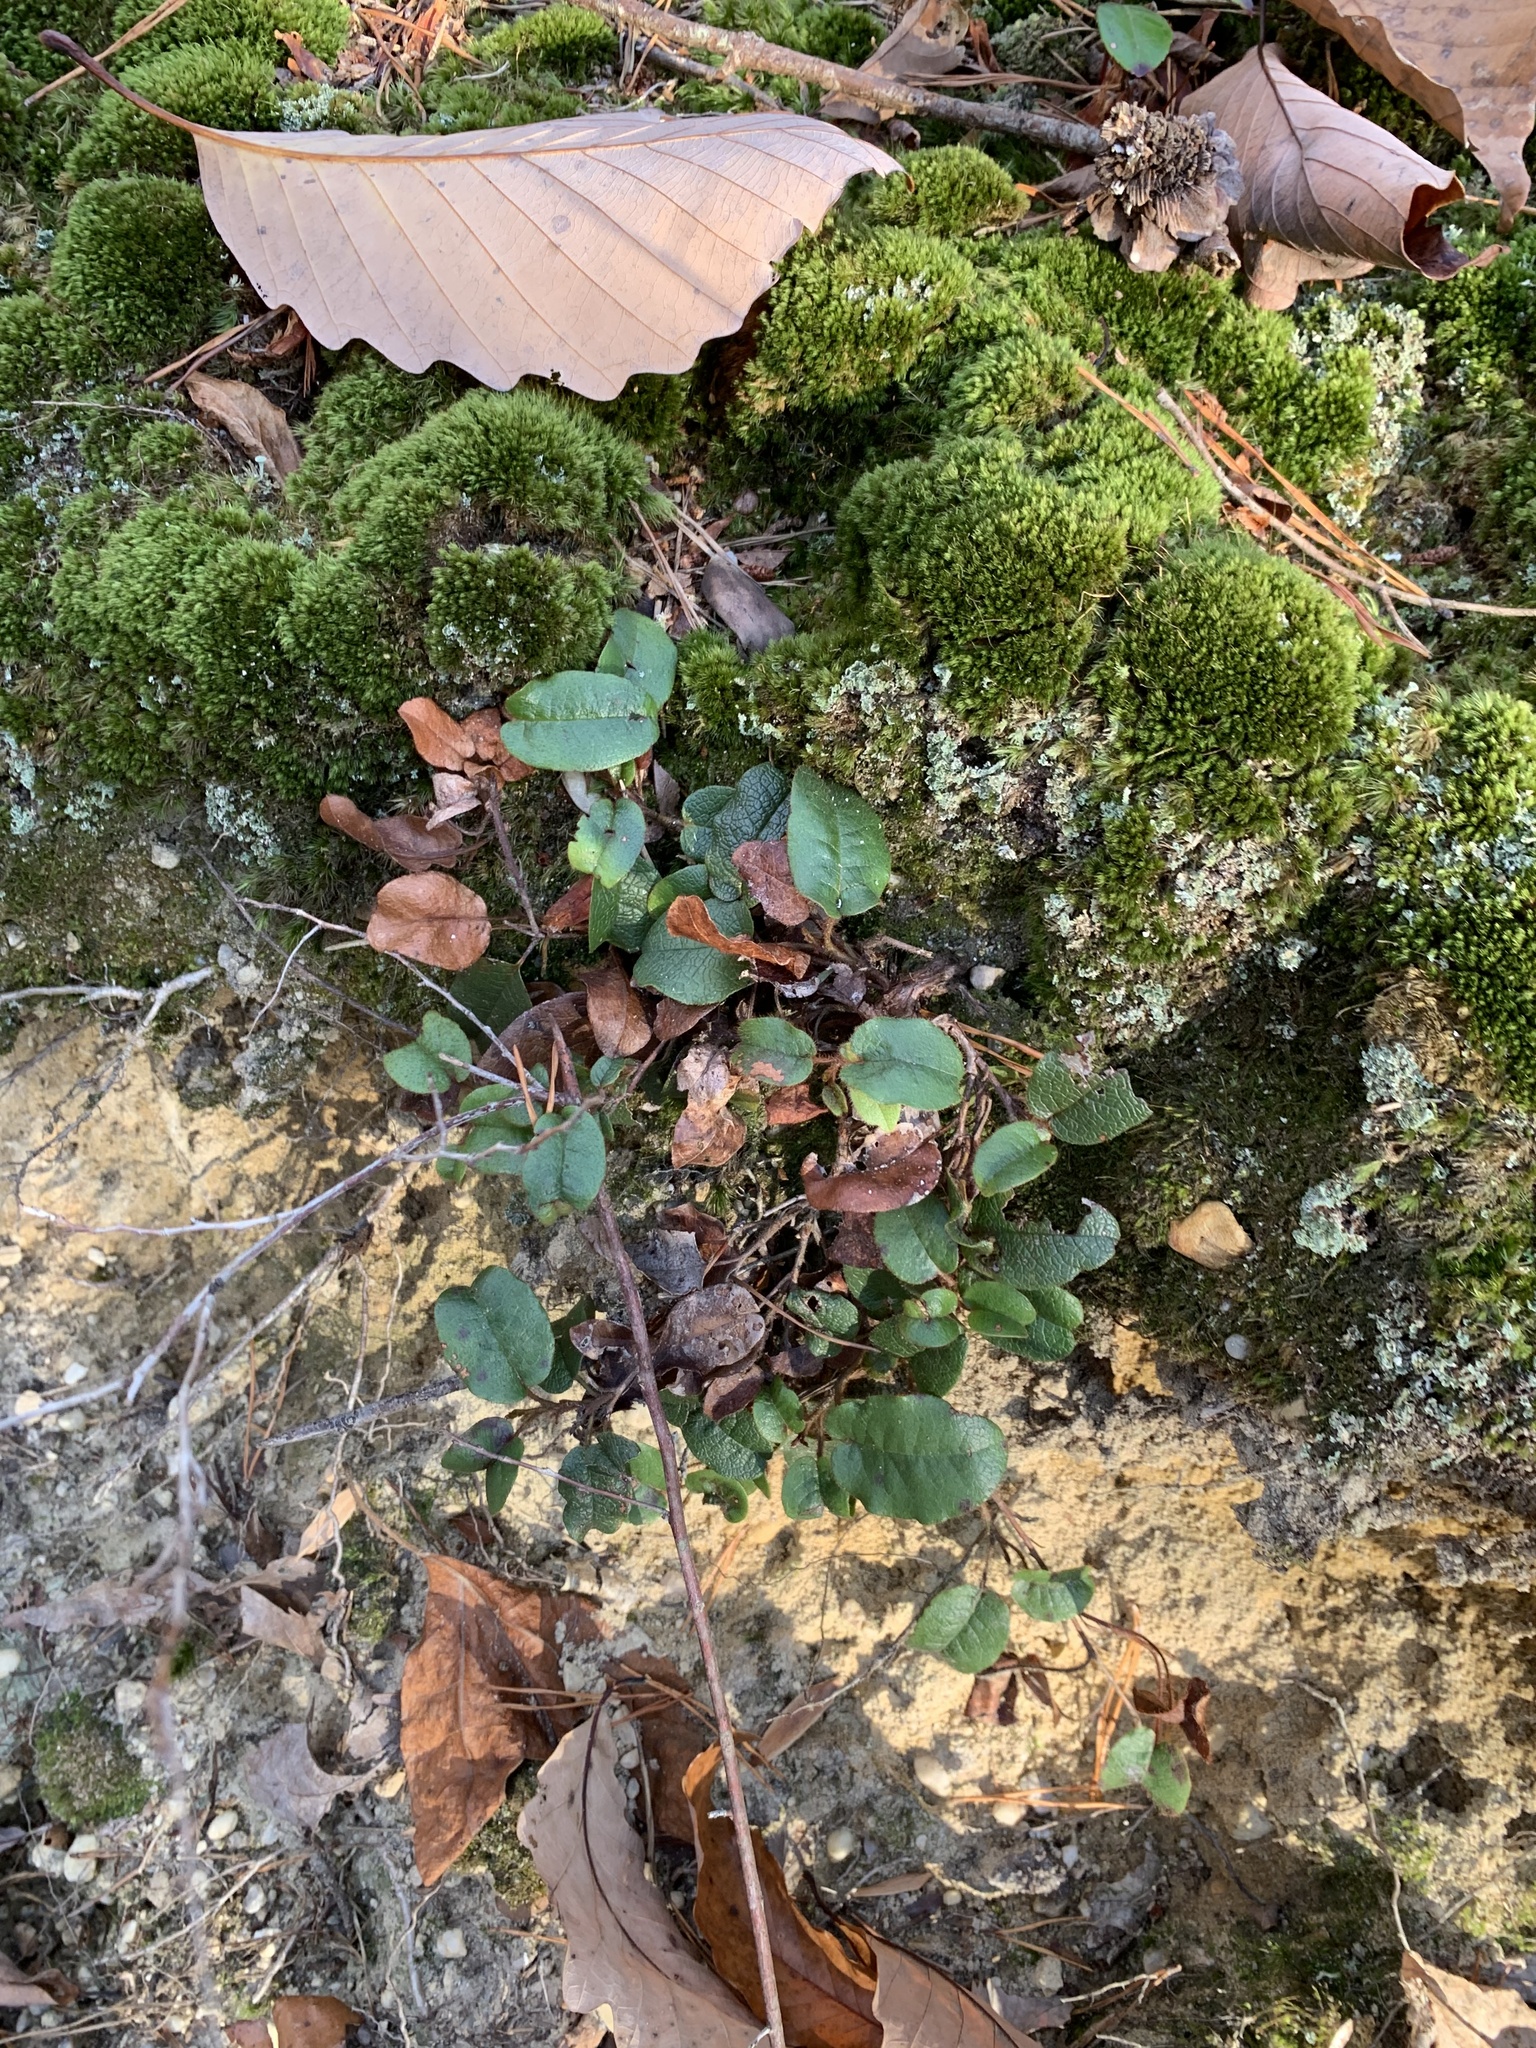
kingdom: Plantae
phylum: Tracheophyta
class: Magnoliopsida
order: Ericales
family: Ericaceae
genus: Epigaea
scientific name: Epigaea repens
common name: Gravelroot
